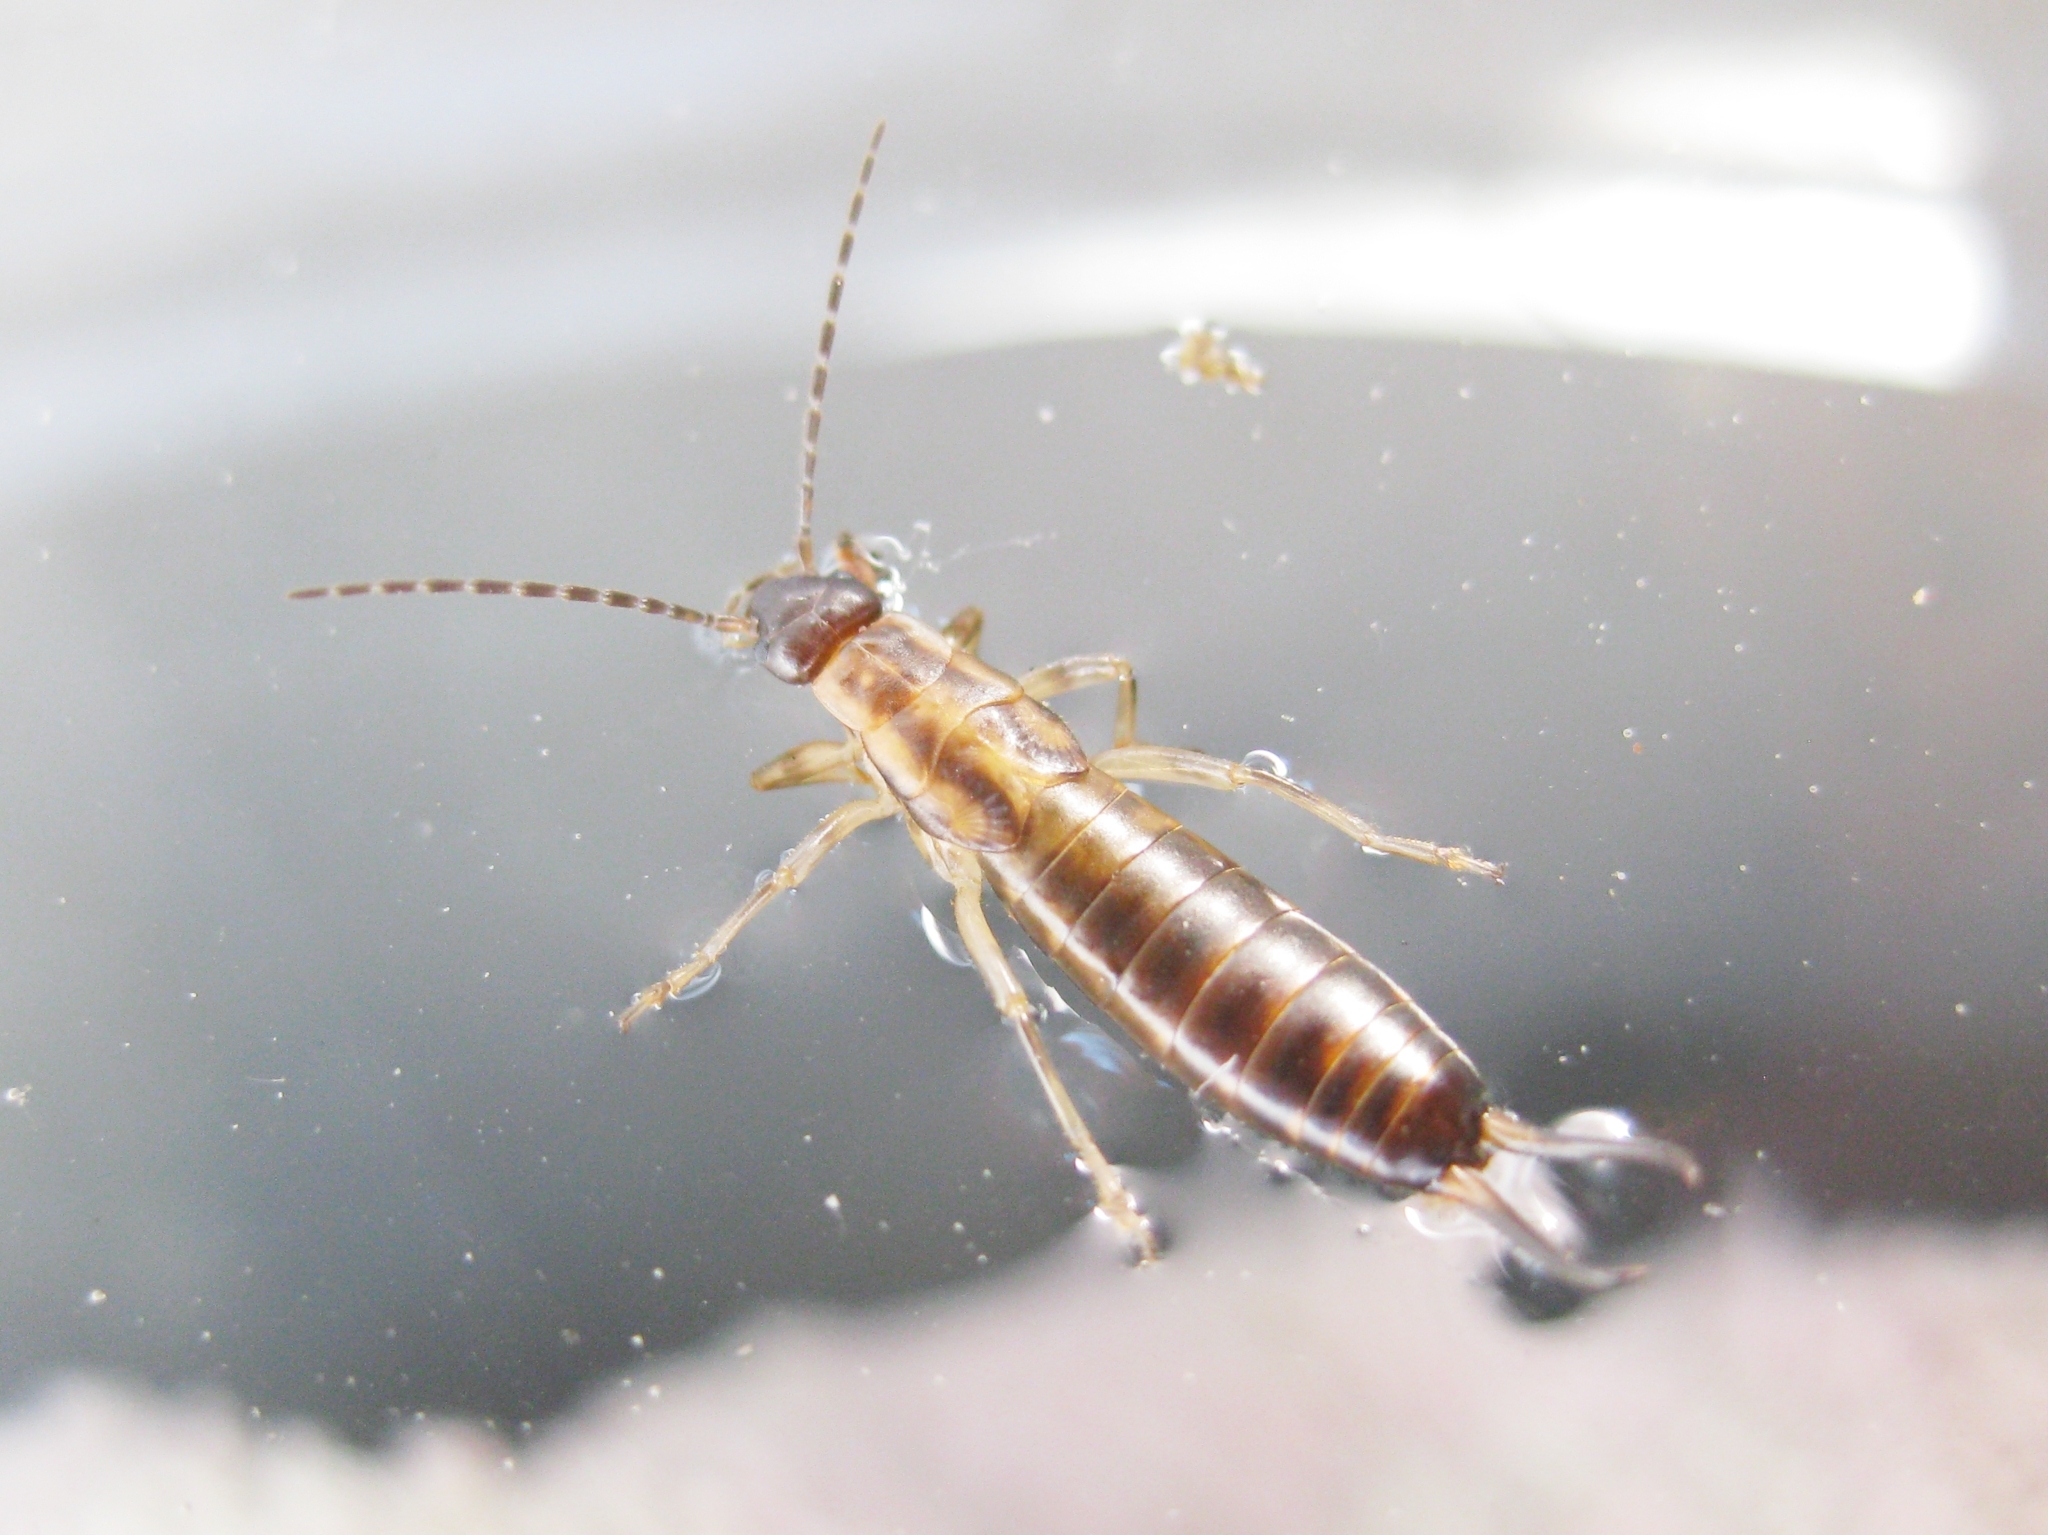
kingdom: Animalia
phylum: Arthropoda
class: Insecta
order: Dermaptera
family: Forficulidae
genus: Forficula
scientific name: Forficula
